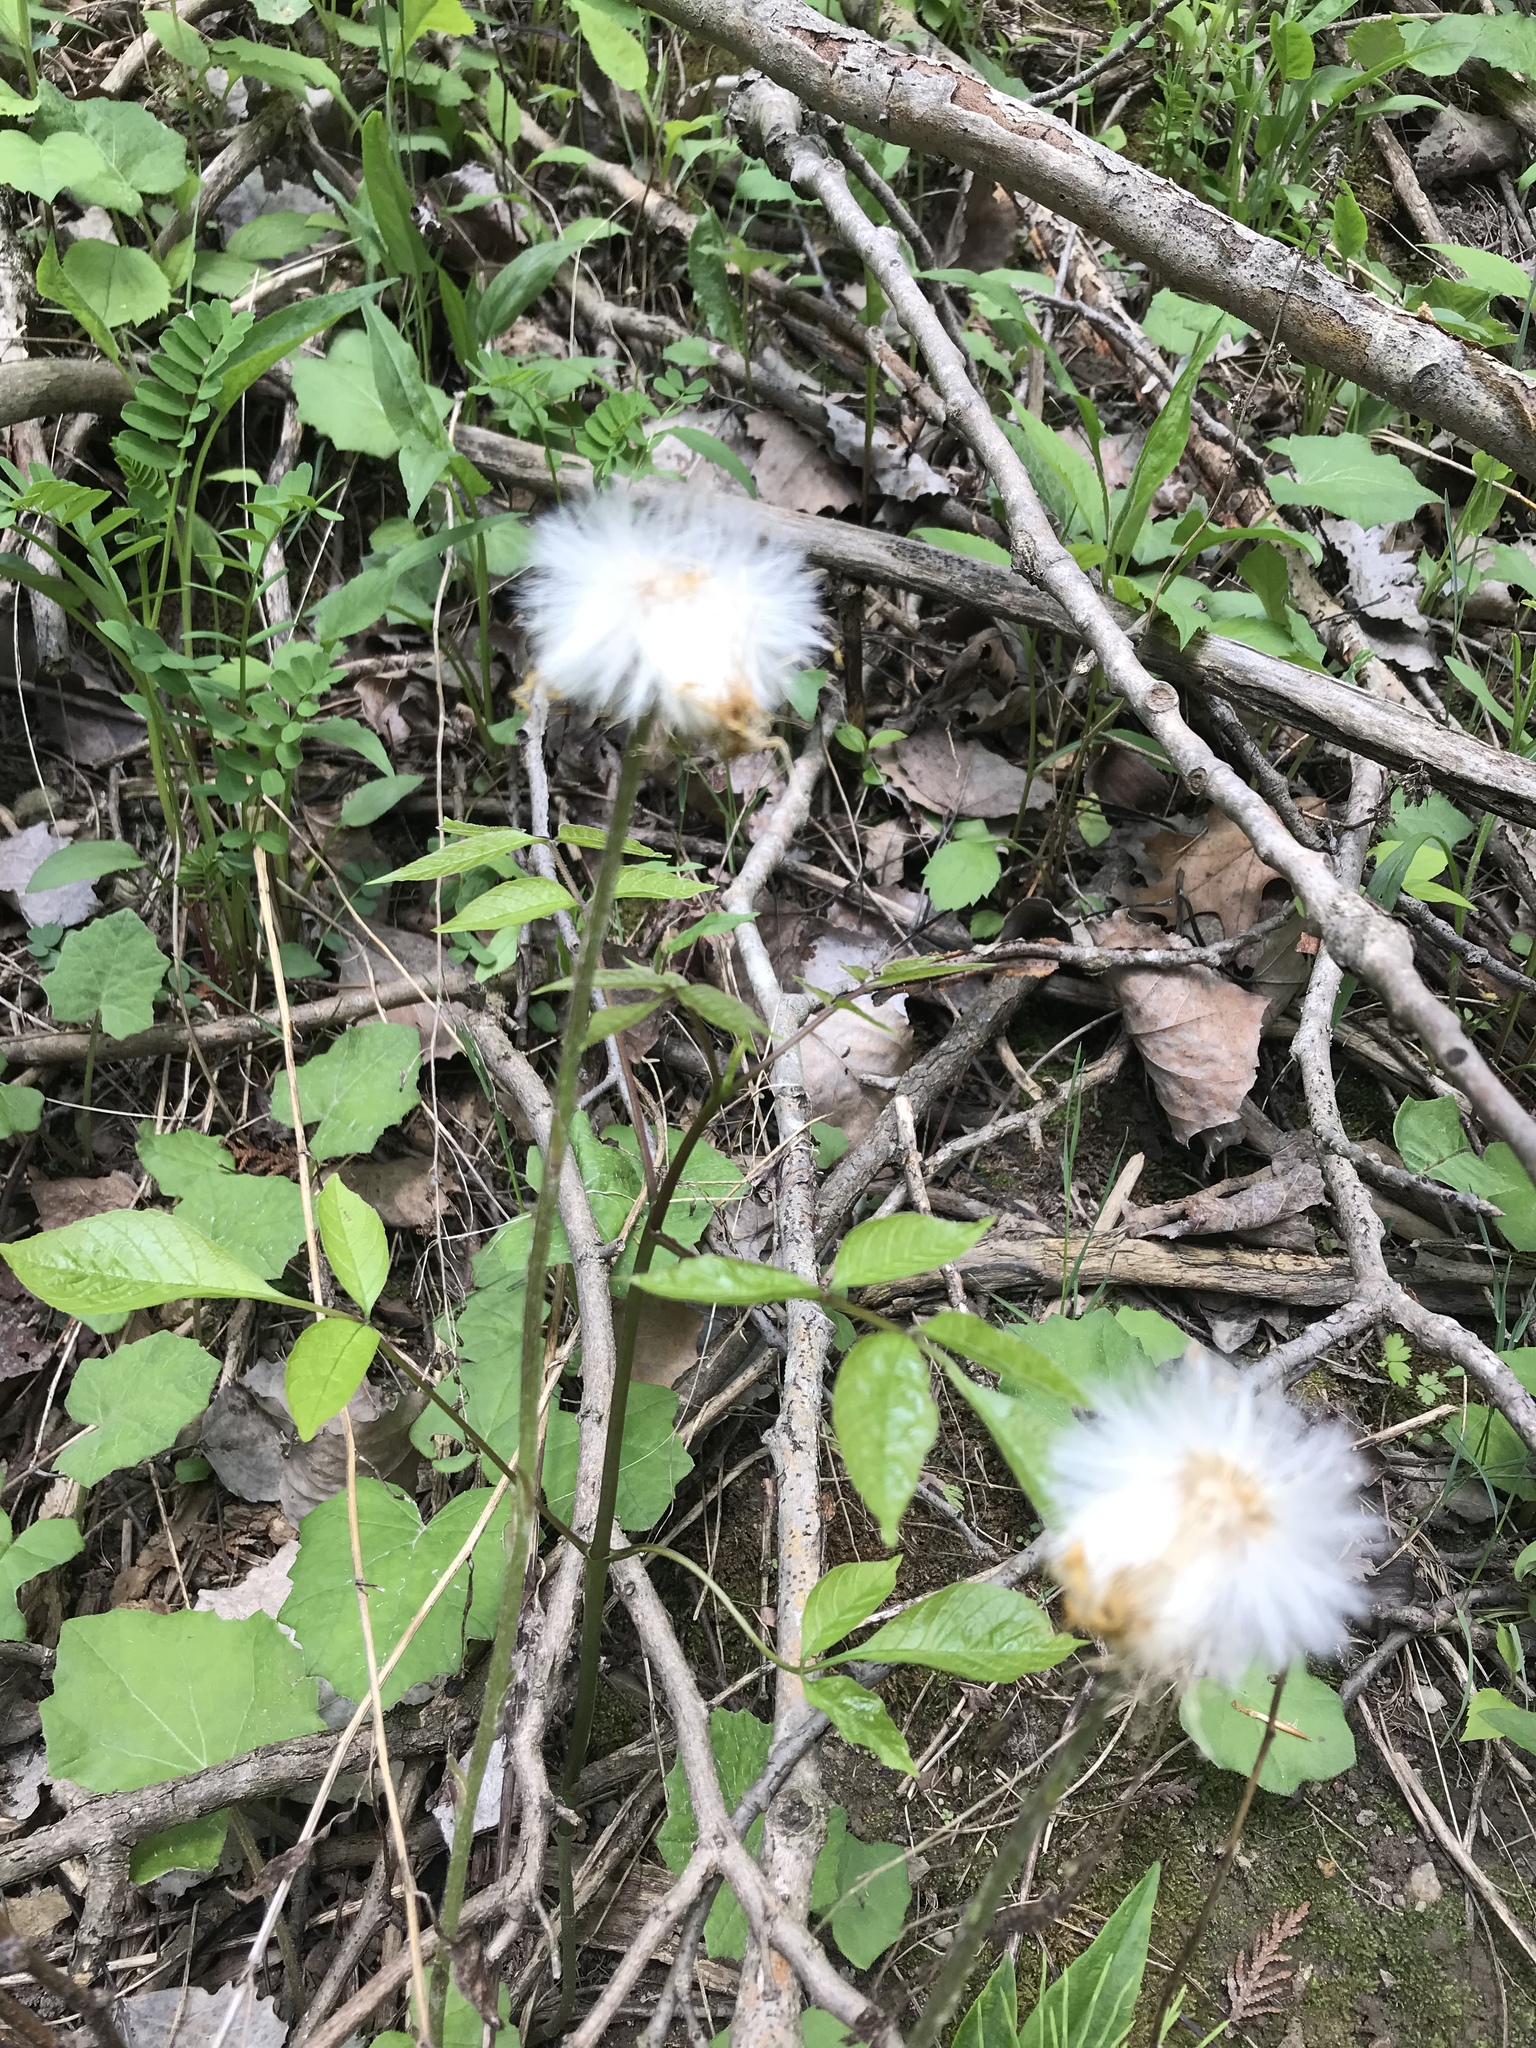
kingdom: Plantae
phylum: Tracheophyta
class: Magnoliopsida
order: Asterales
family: Asteraceae
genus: Tussilago
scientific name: Tussilago farfara
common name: Coltsfoot
